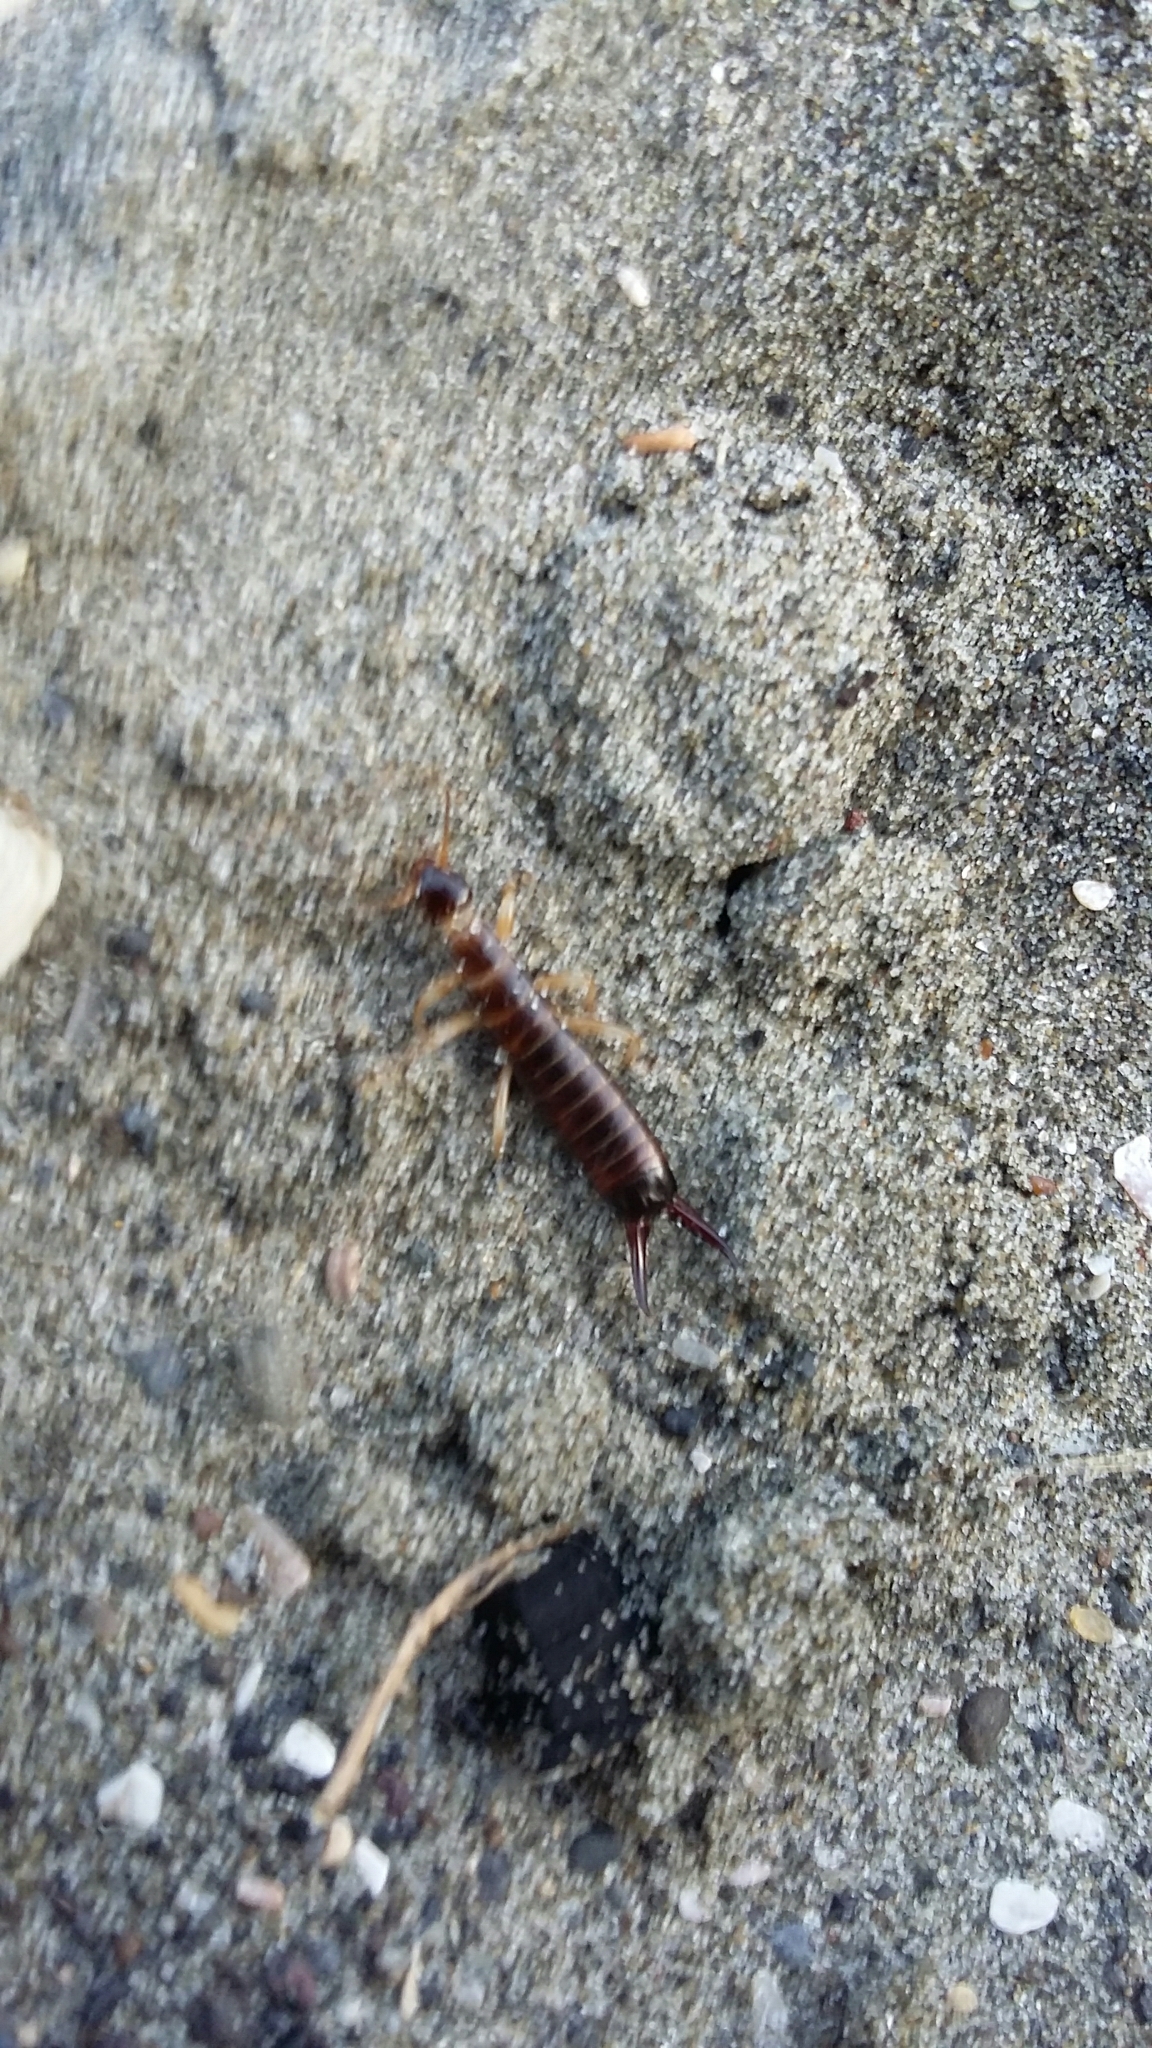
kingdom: Animalia
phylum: Arthropoda
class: Insecta
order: Dermaptera
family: Anisolabididae
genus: Anisolabis
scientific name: Anisolabis littorea
